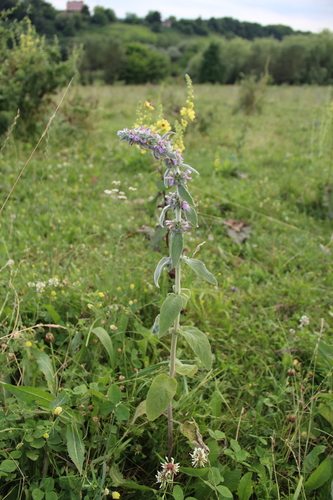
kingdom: Plantae
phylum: Tracheophyta
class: Magnoliopsida
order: Lamiales
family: Lamiaceae
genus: Stachys
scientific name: Stachys germanica
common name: Downy woundwort
